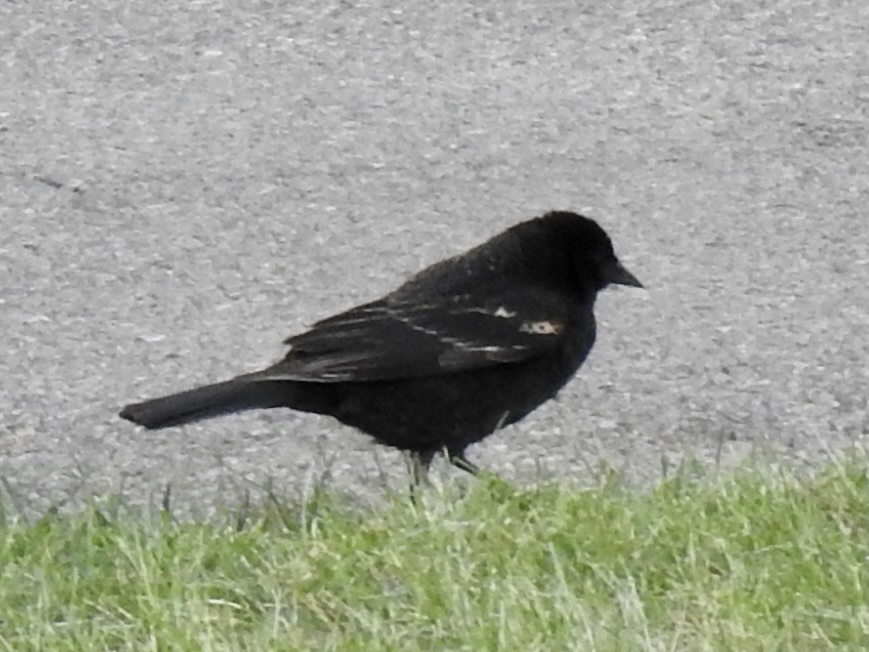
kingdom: Animalia
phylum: Chordata
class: Aves
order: Passeriformes
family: Icteridae
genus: Agelaius
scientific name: Agelaius phoeniceus
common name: Red-winged blackbird
